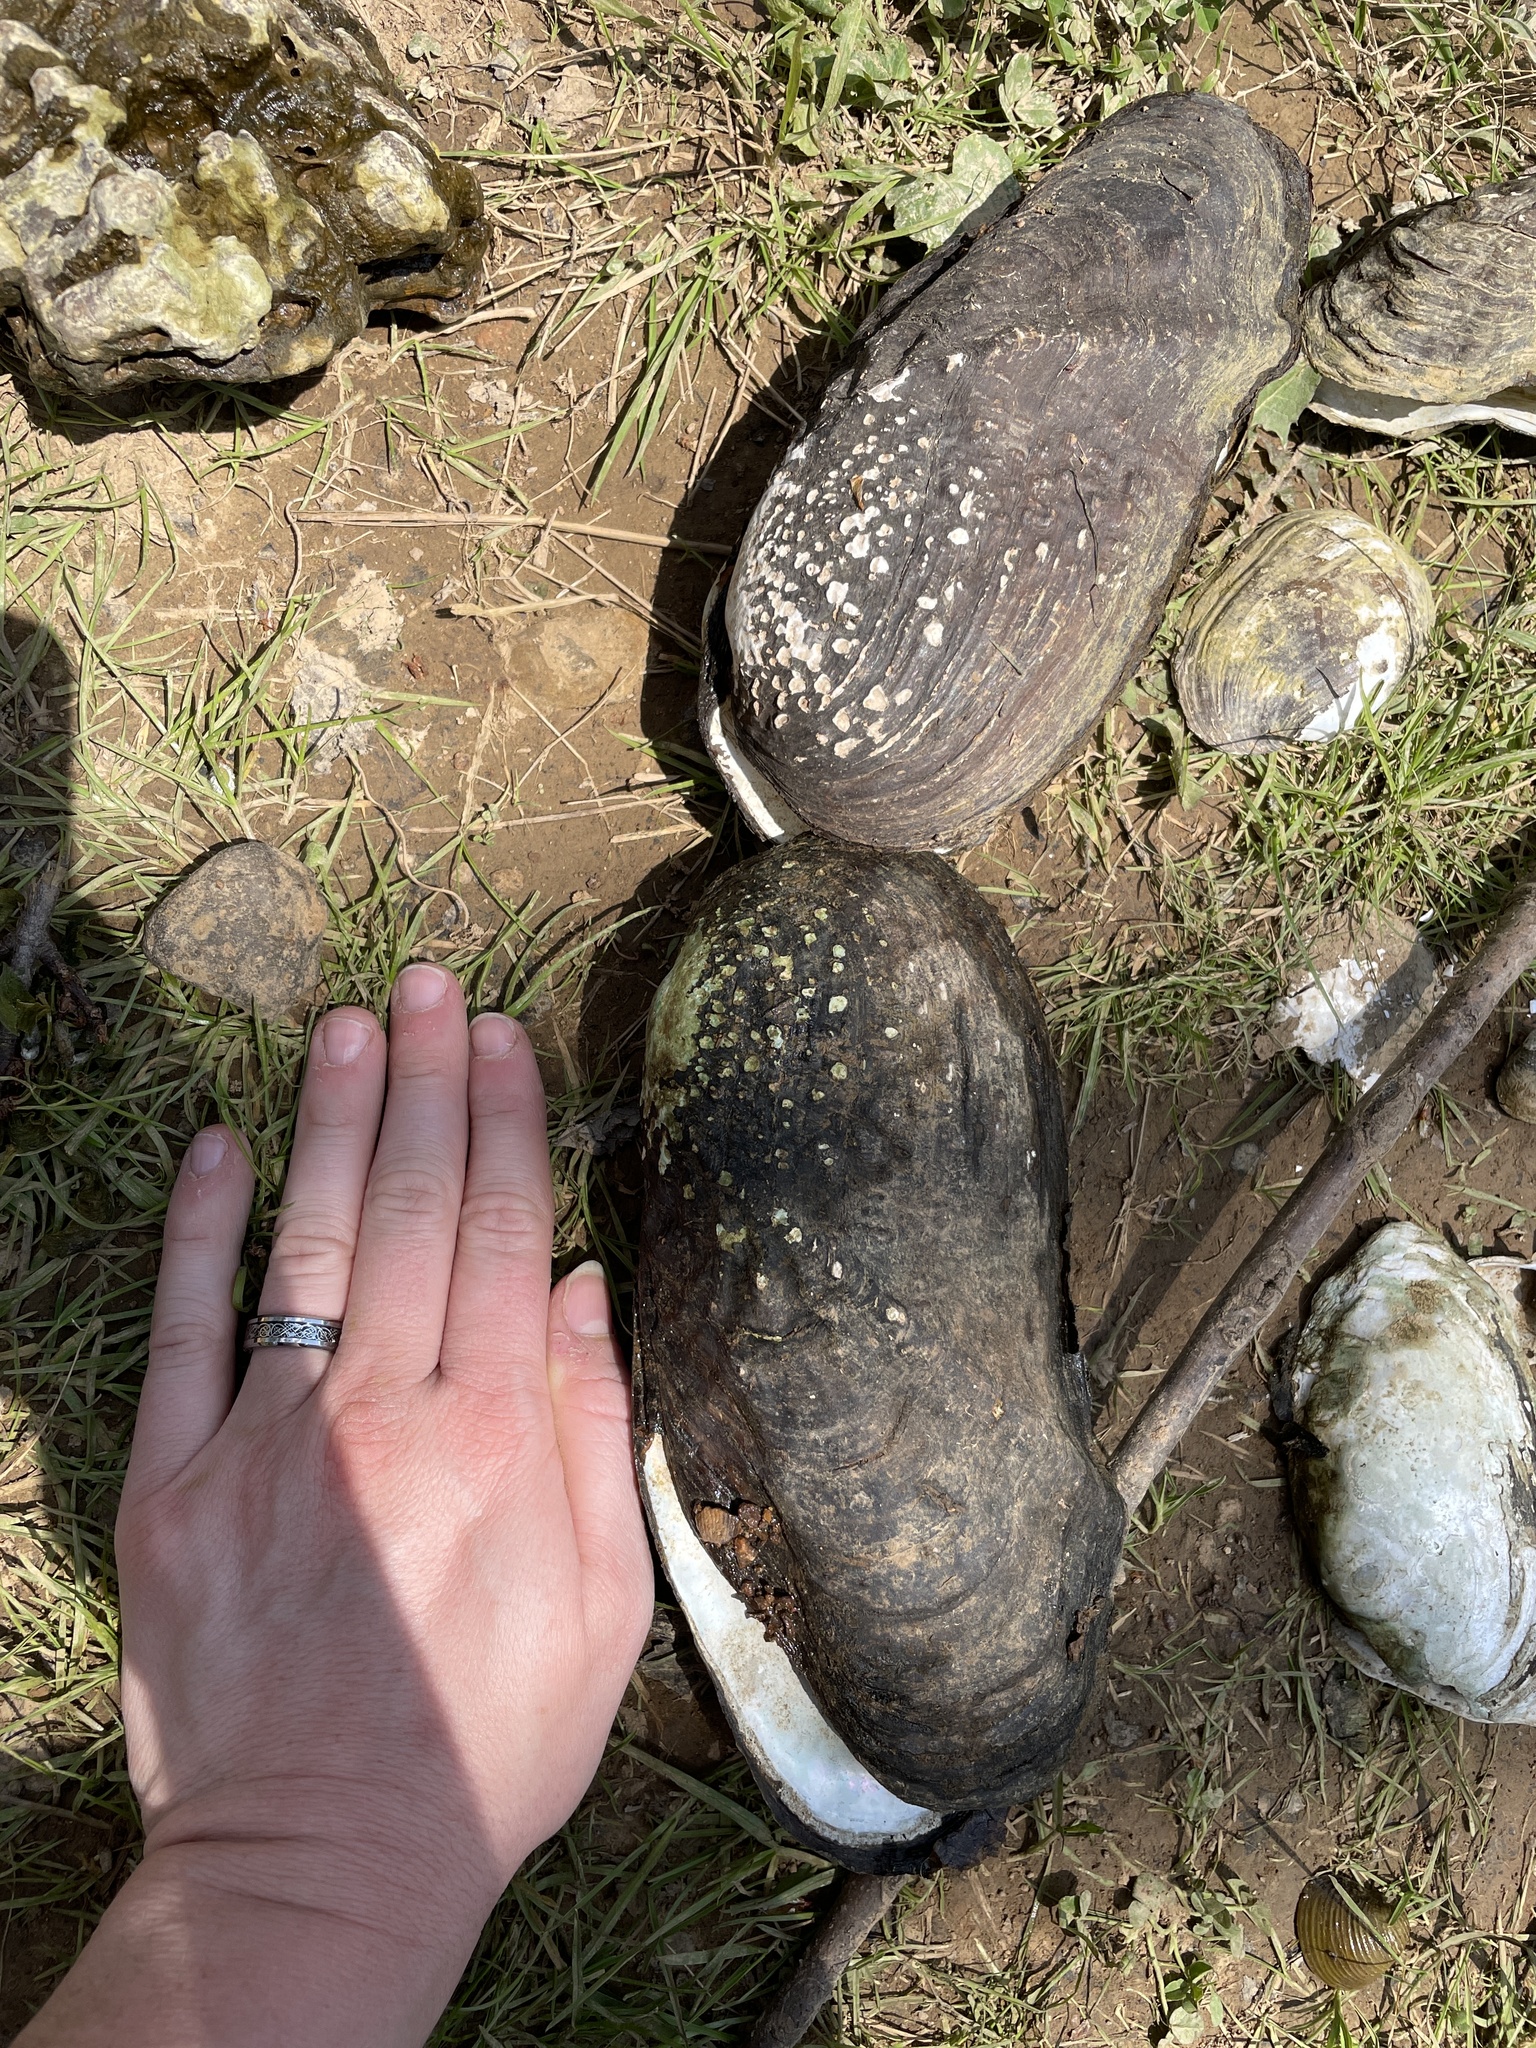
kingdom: Animalia
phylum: Mollusca
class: Bivalvia
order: Unionida
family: Unionidae
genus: Tritogonia
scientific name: Tritogonia verrucosa
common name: Pistolgrip
